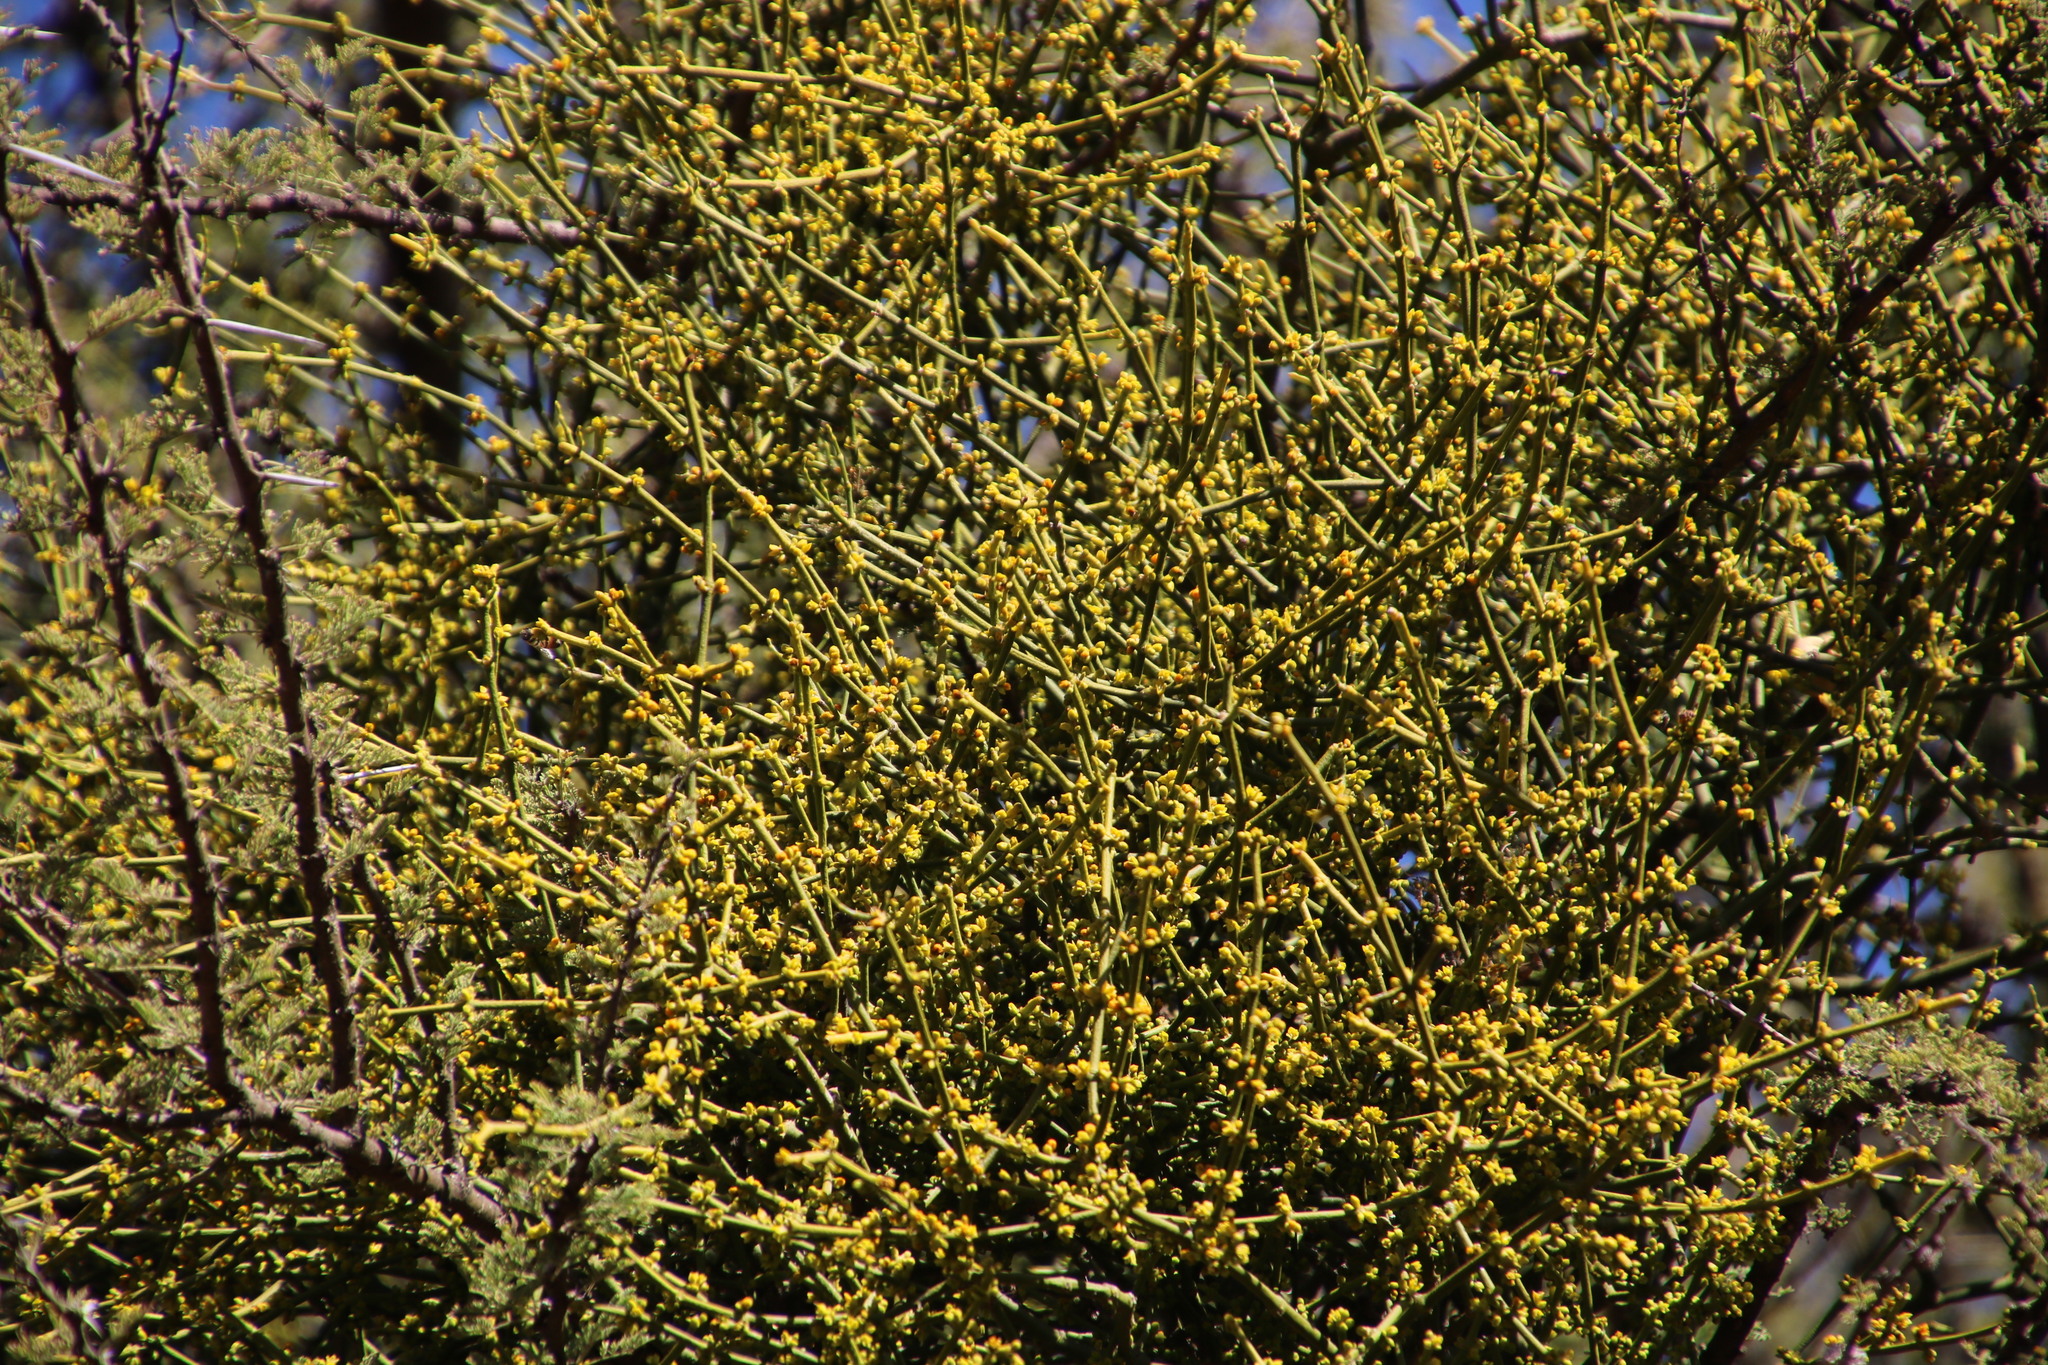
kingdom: Plantae
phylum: Tracheophyta
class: Magnoliopsida
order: Fabales
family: Fabaceae
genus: Vachellia
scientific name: Vachellia tortilis
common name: Umbrella thorn acacia
